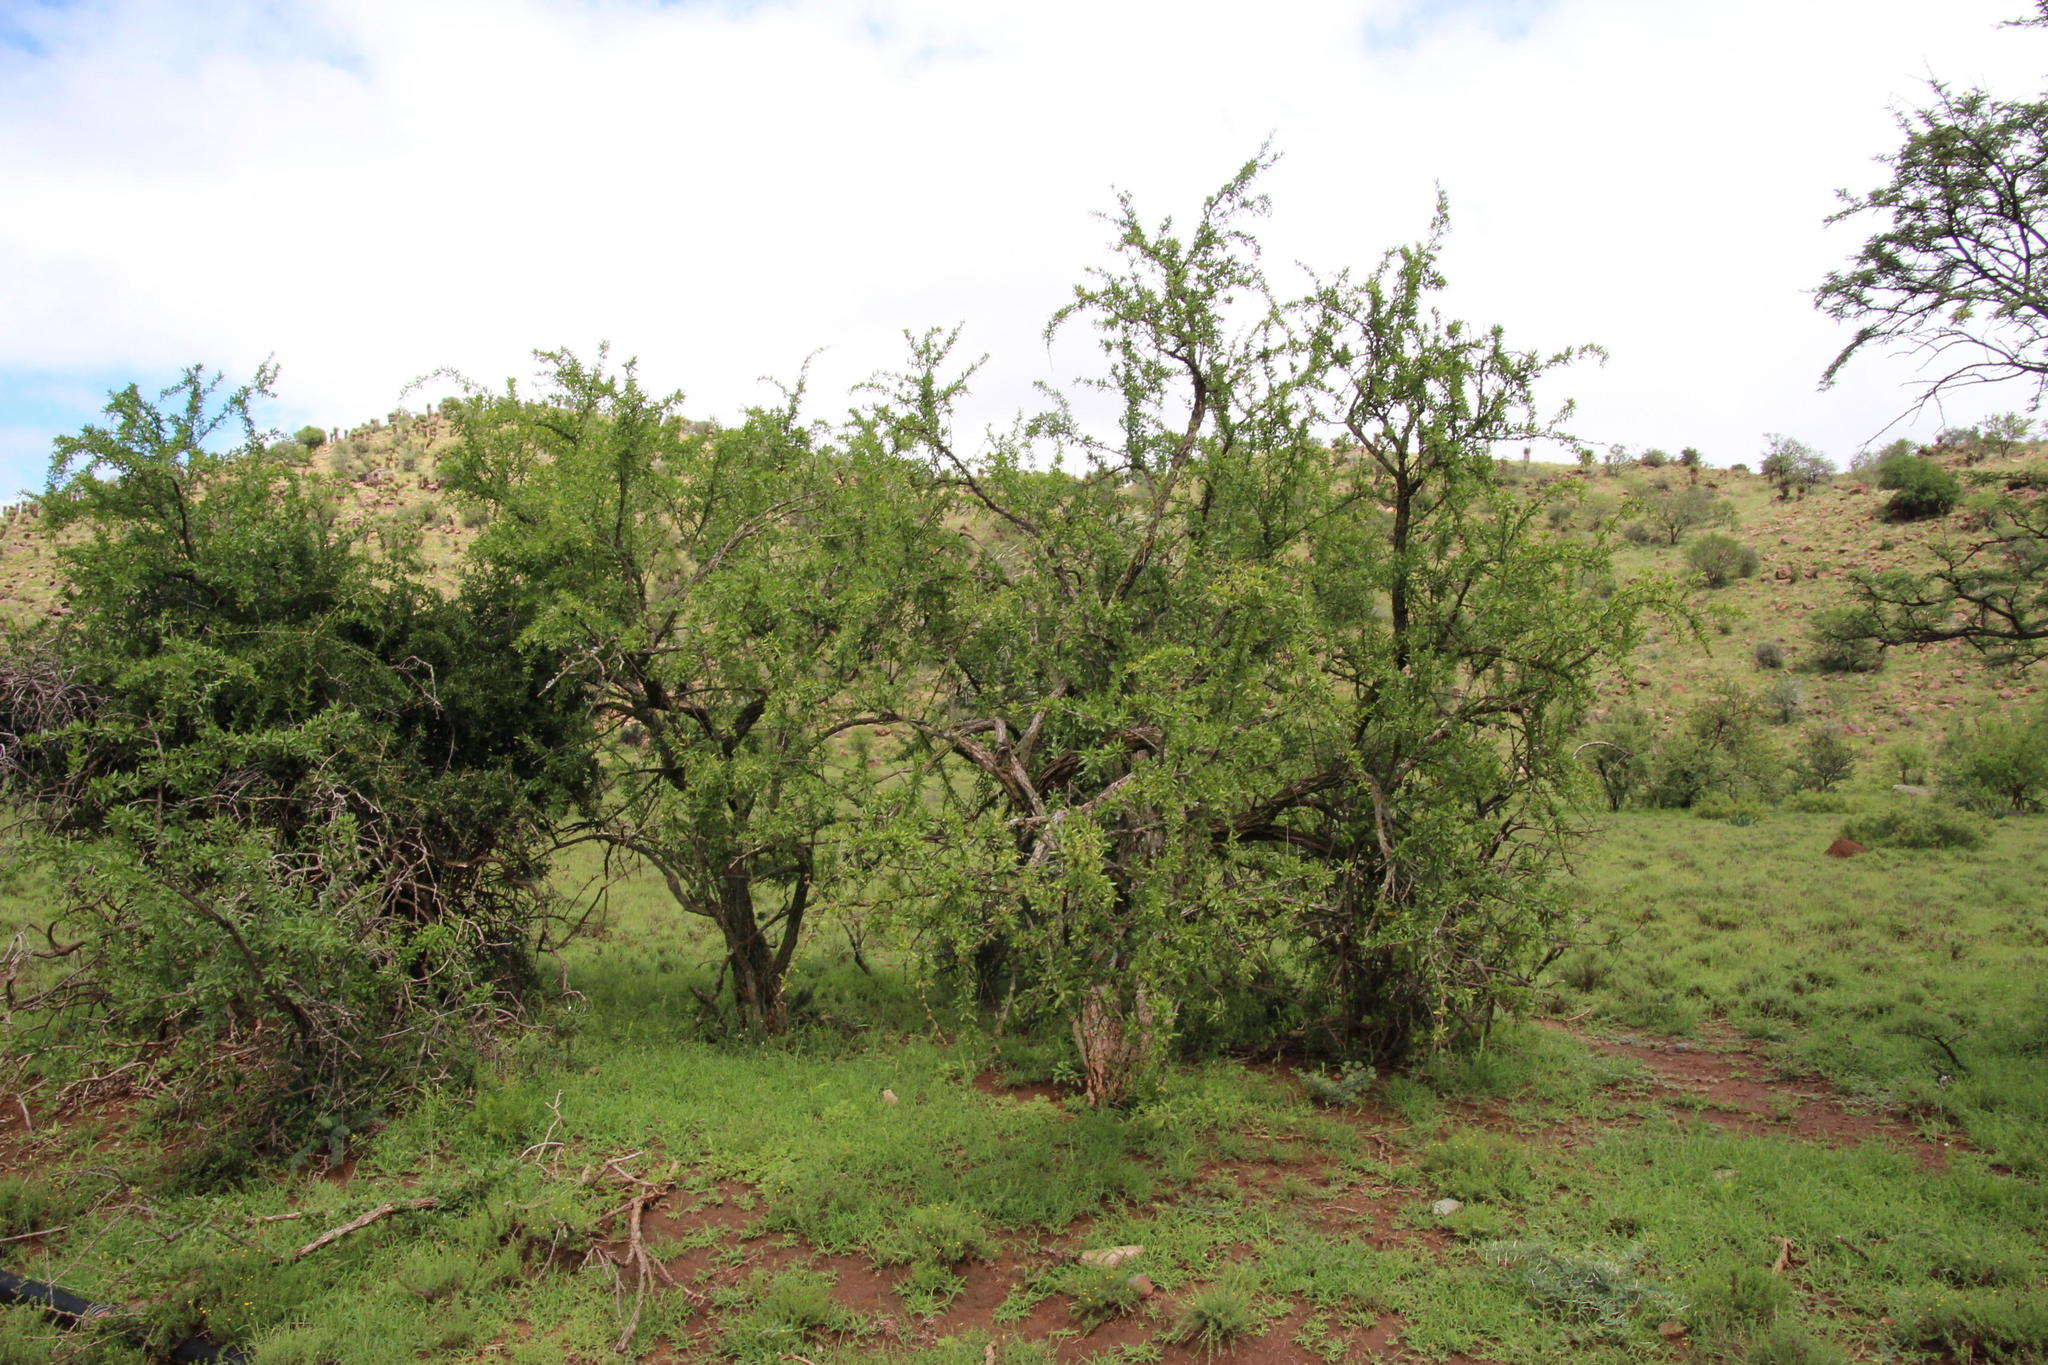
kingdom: Plantae
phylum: Tracheophyta
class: Magnoliopsida
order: Brassicales
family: Salvadoraceae
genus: Azima
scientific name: Azima tetracantha
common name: Needle bush
